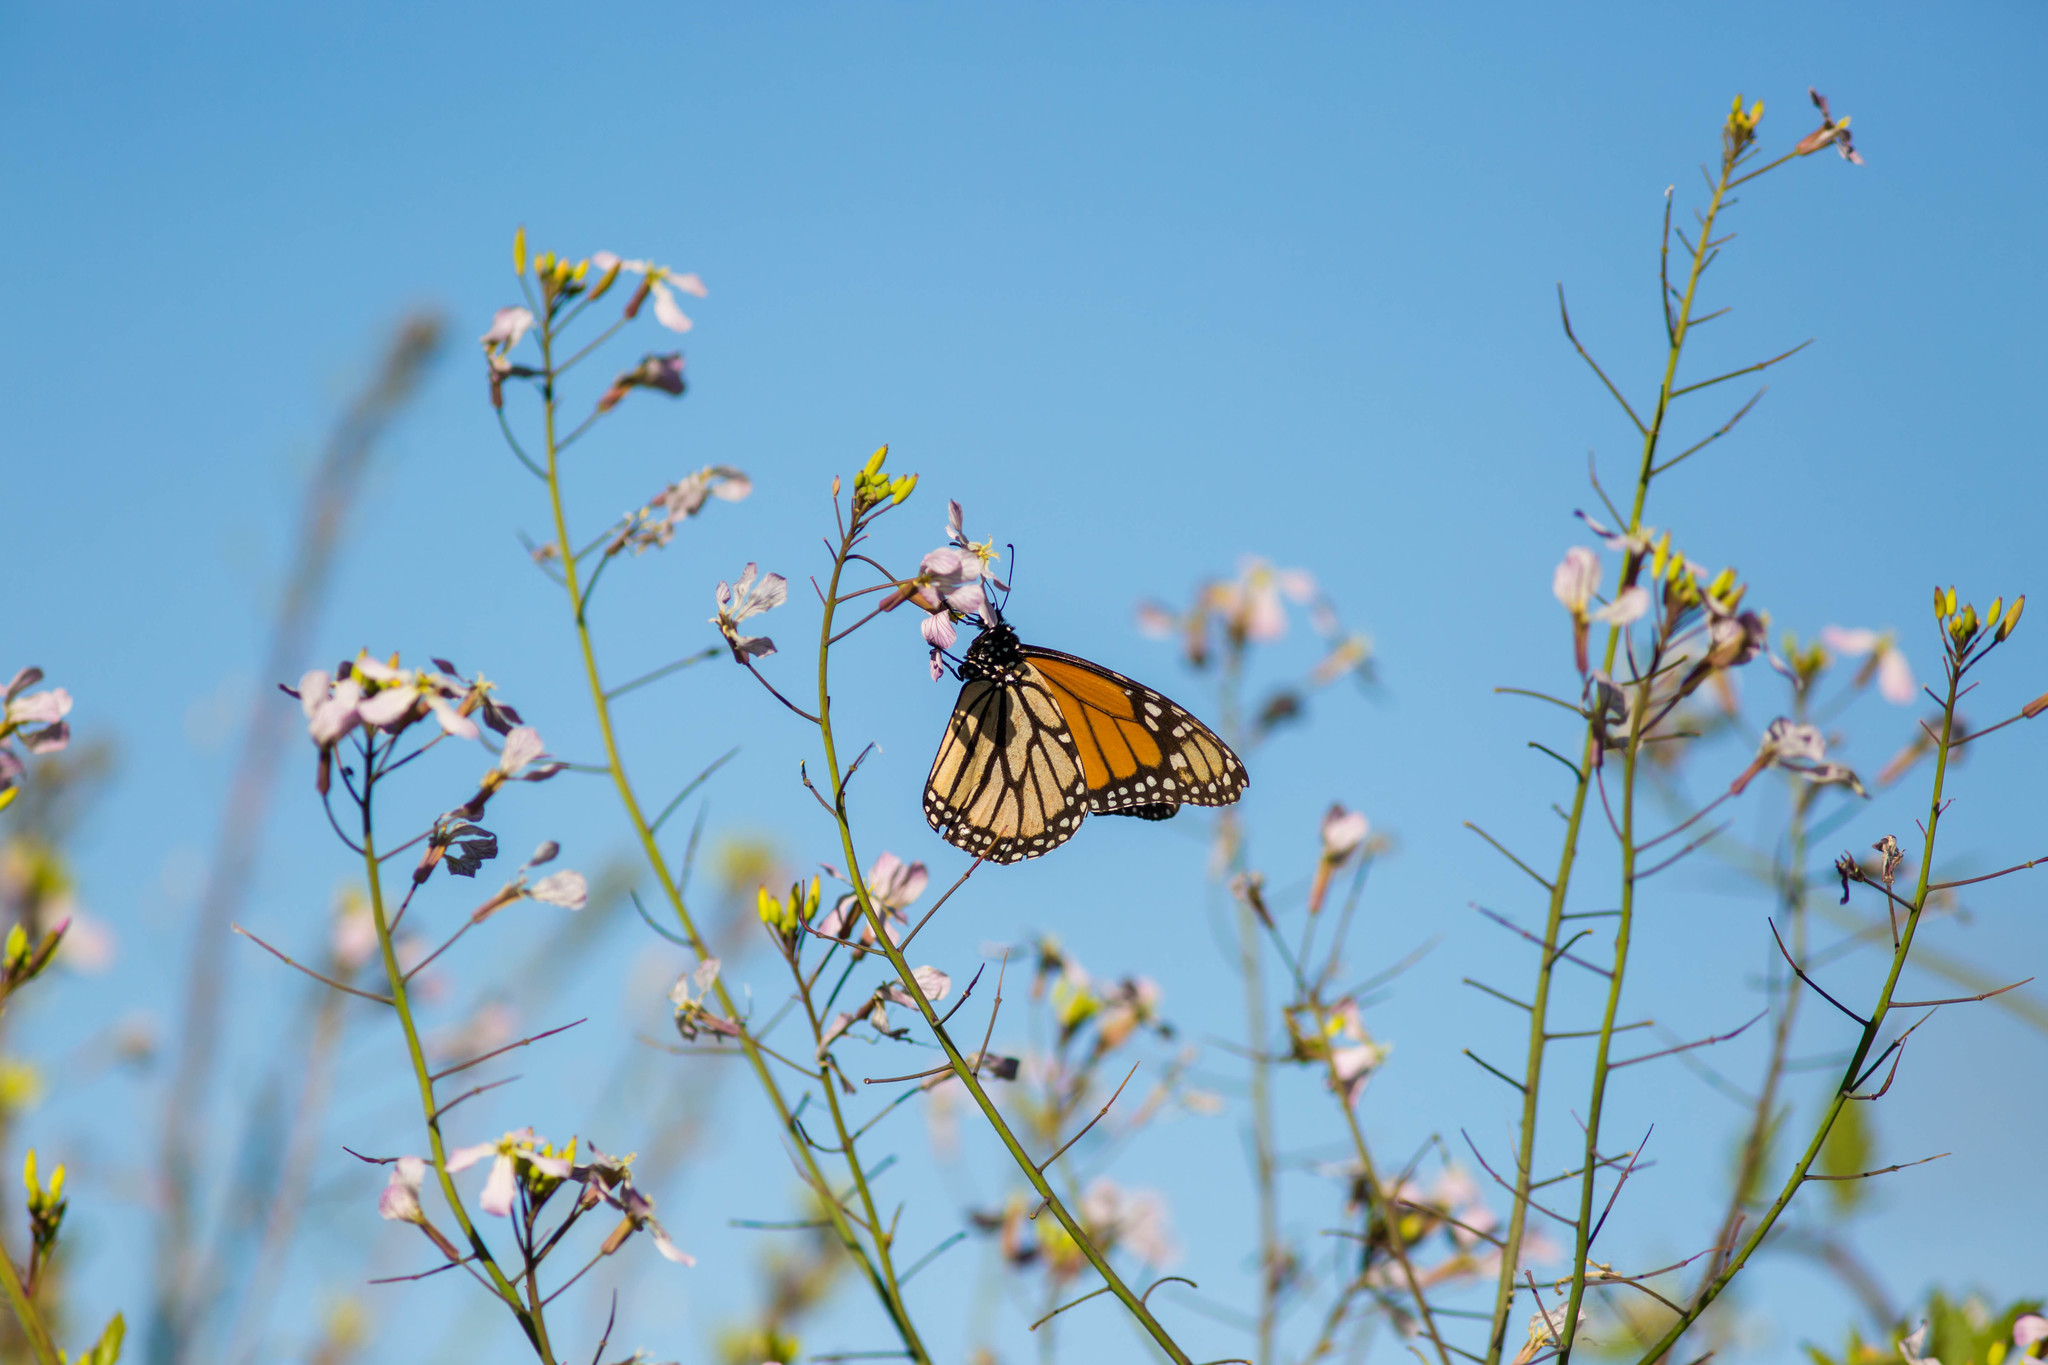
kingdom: Animalia
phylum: Arthropoda
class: Insecta
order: Lepidoptera
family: Nymphalidae
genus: Danaus
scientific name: Danaus plexippus
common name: Monarch
